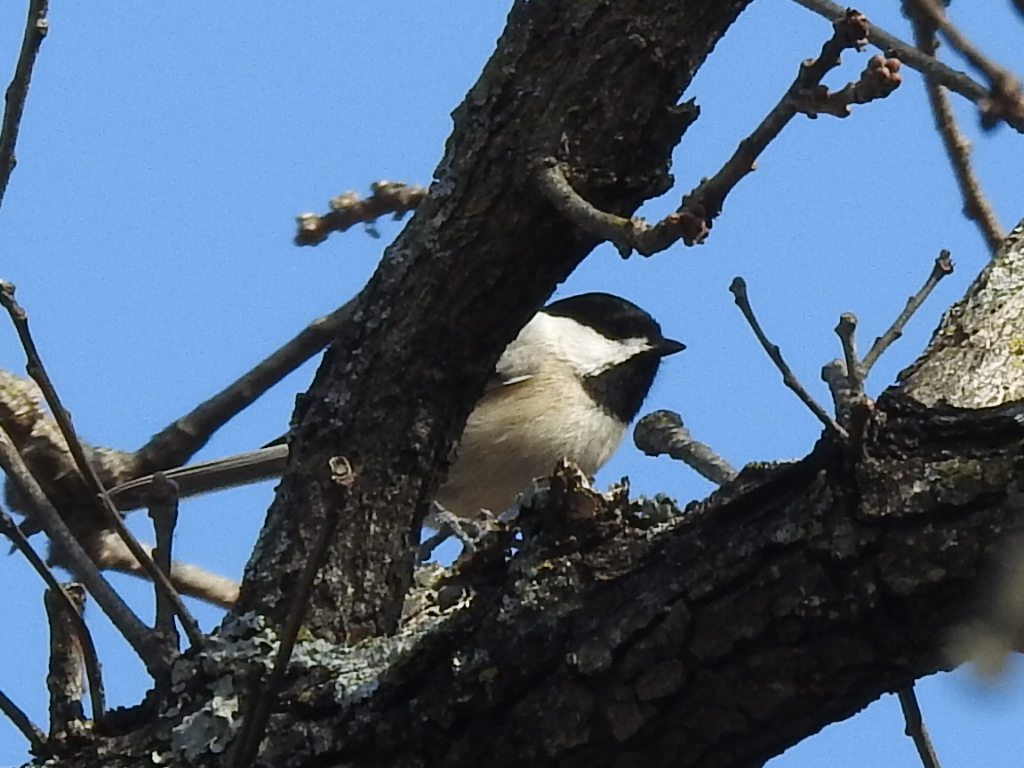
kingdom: Animalia
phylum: Chordata
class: Aves
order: Passeriformes
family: Paridae
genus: Poecile
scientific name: Poecile carolinensis
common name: Carolina chickadee
